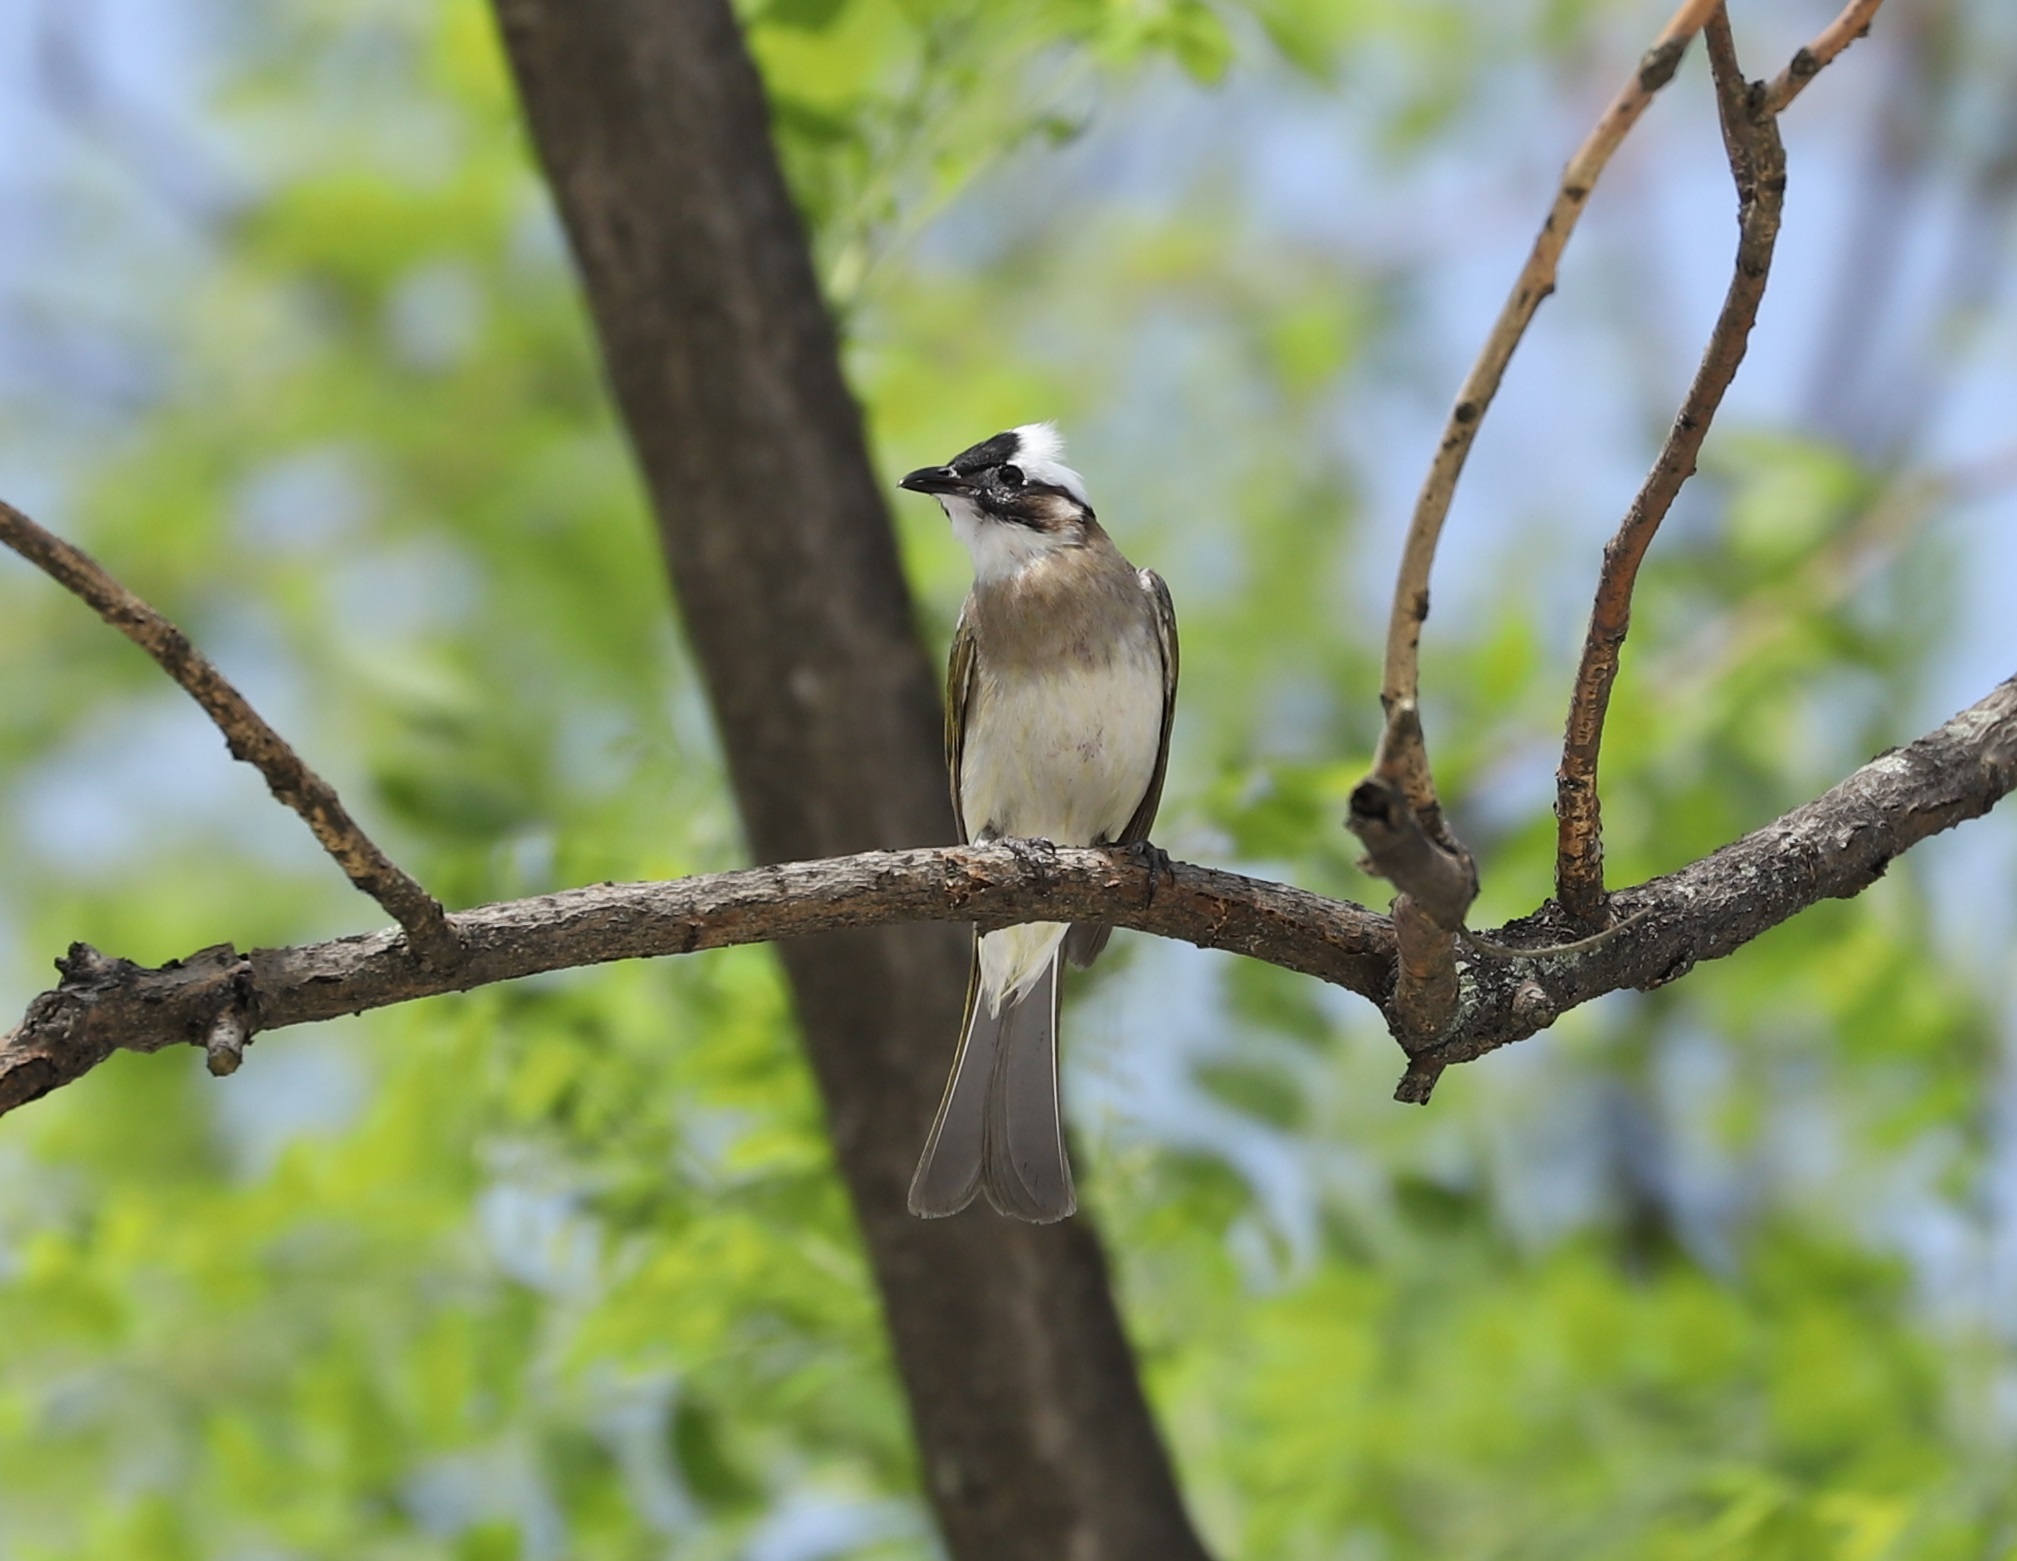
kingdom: Animalia
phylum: Chordata
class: Aves
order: Passeriformes
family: Pycnonotidae
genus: Pycnonotus
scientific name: Pycnonotus sinensis
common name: Light-vented bulbul
